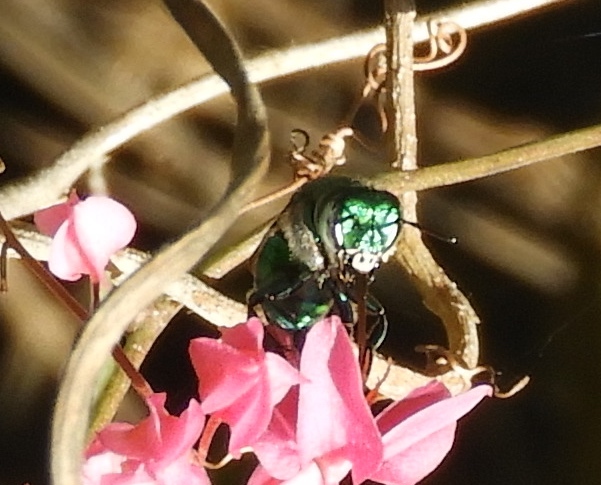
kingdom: Animalia
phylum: Arthropoda
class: Insecta
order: Hymenoptera
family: Apidae
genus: Euglossa
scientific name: Euglossa
